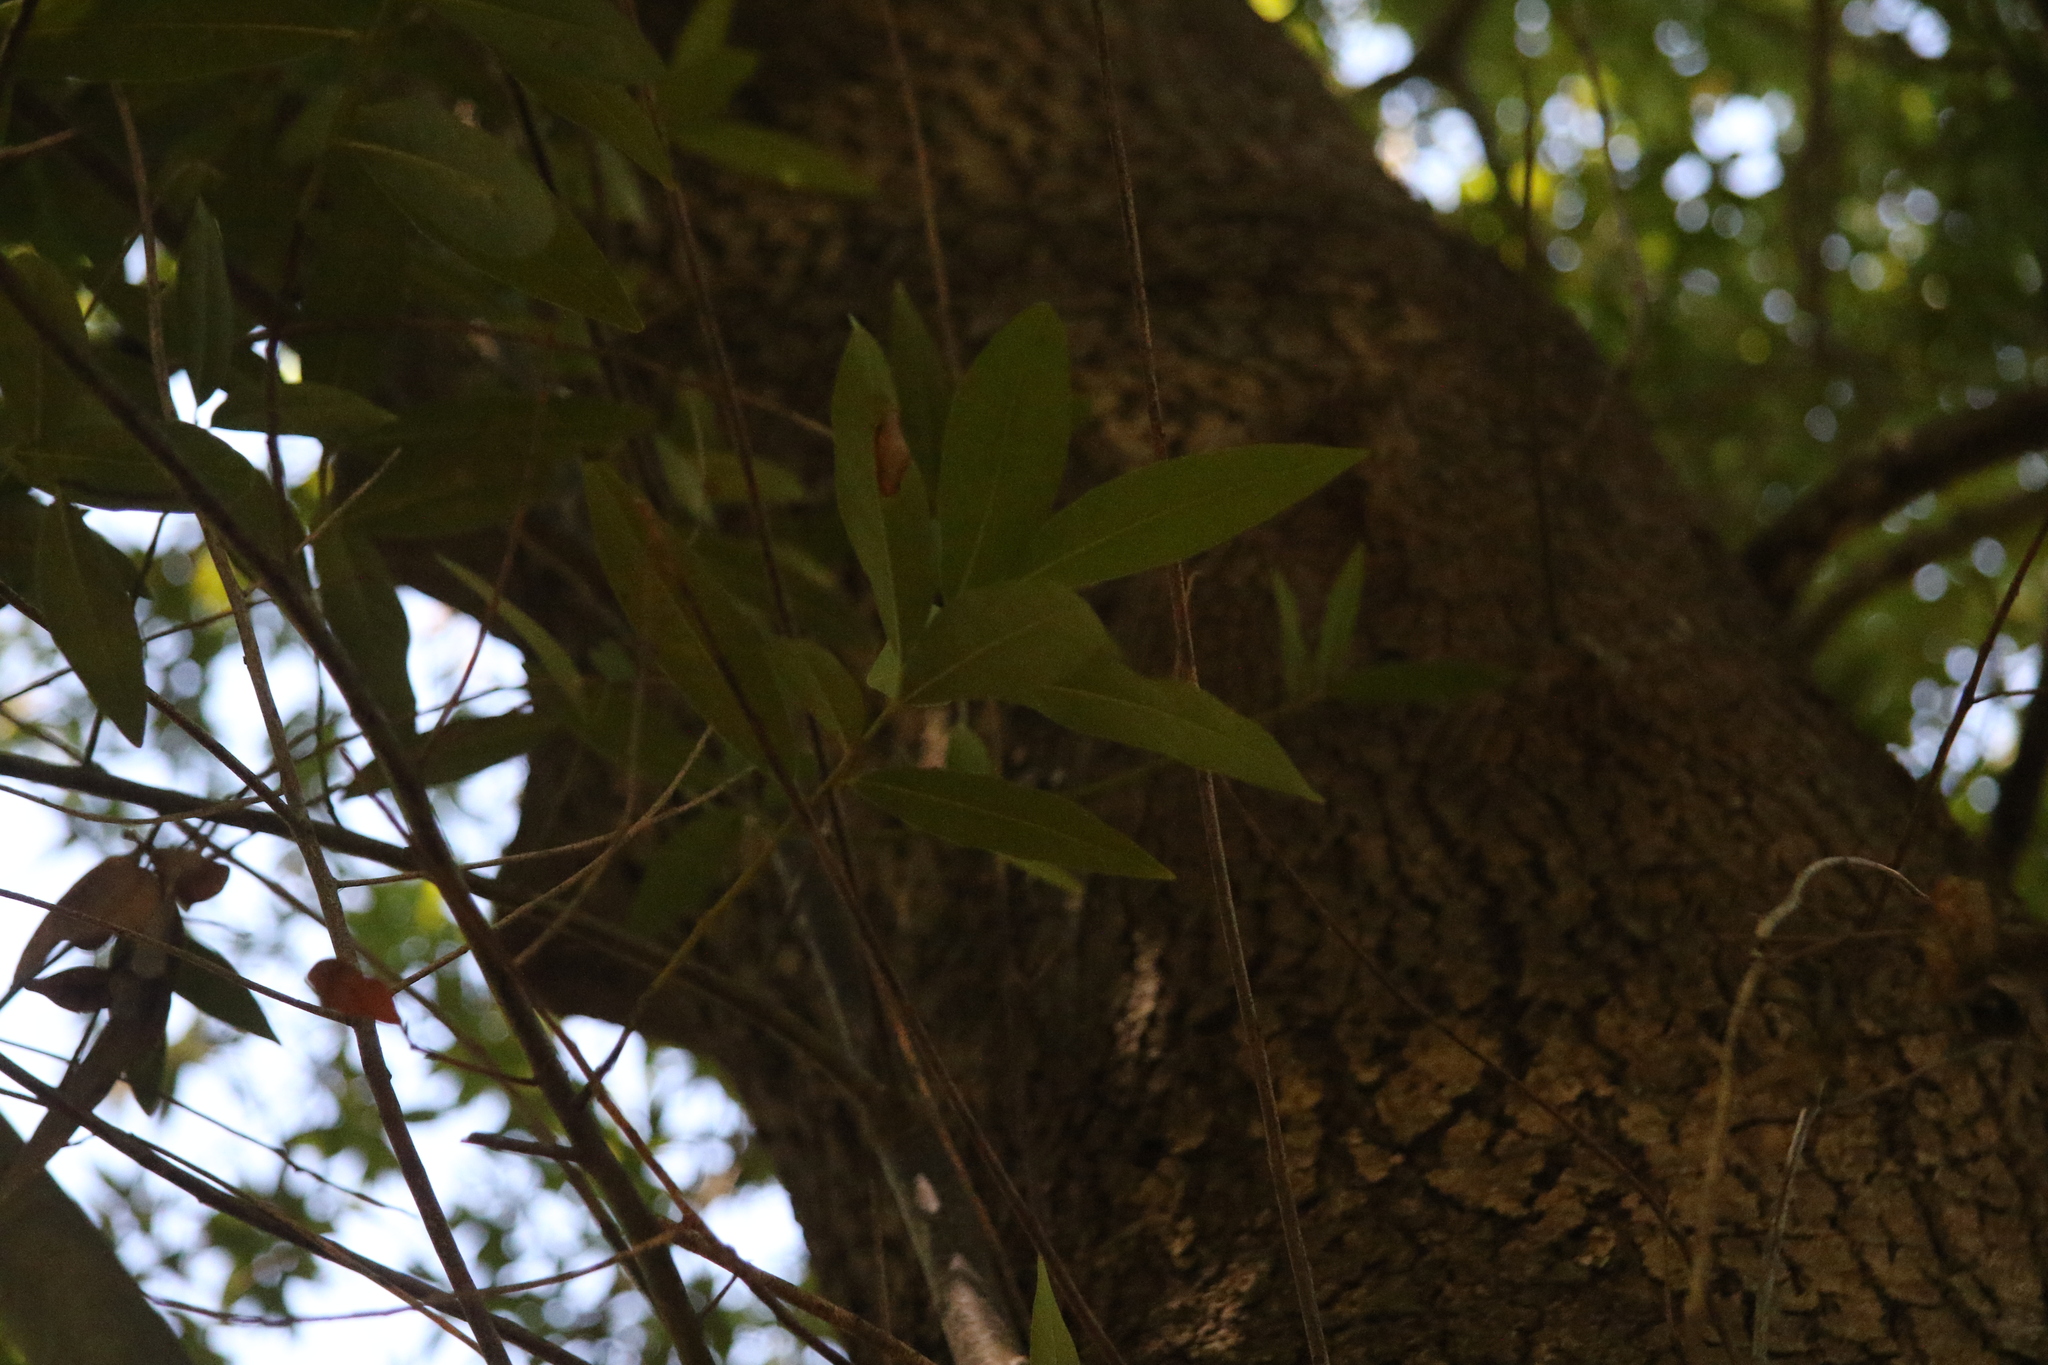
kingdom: Plantae
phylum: Tracheophyta
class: Magnoliopsida
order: Laurales
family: Lauraceae
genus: Umbellularia
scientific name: Umbellularia californica
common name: California bay
